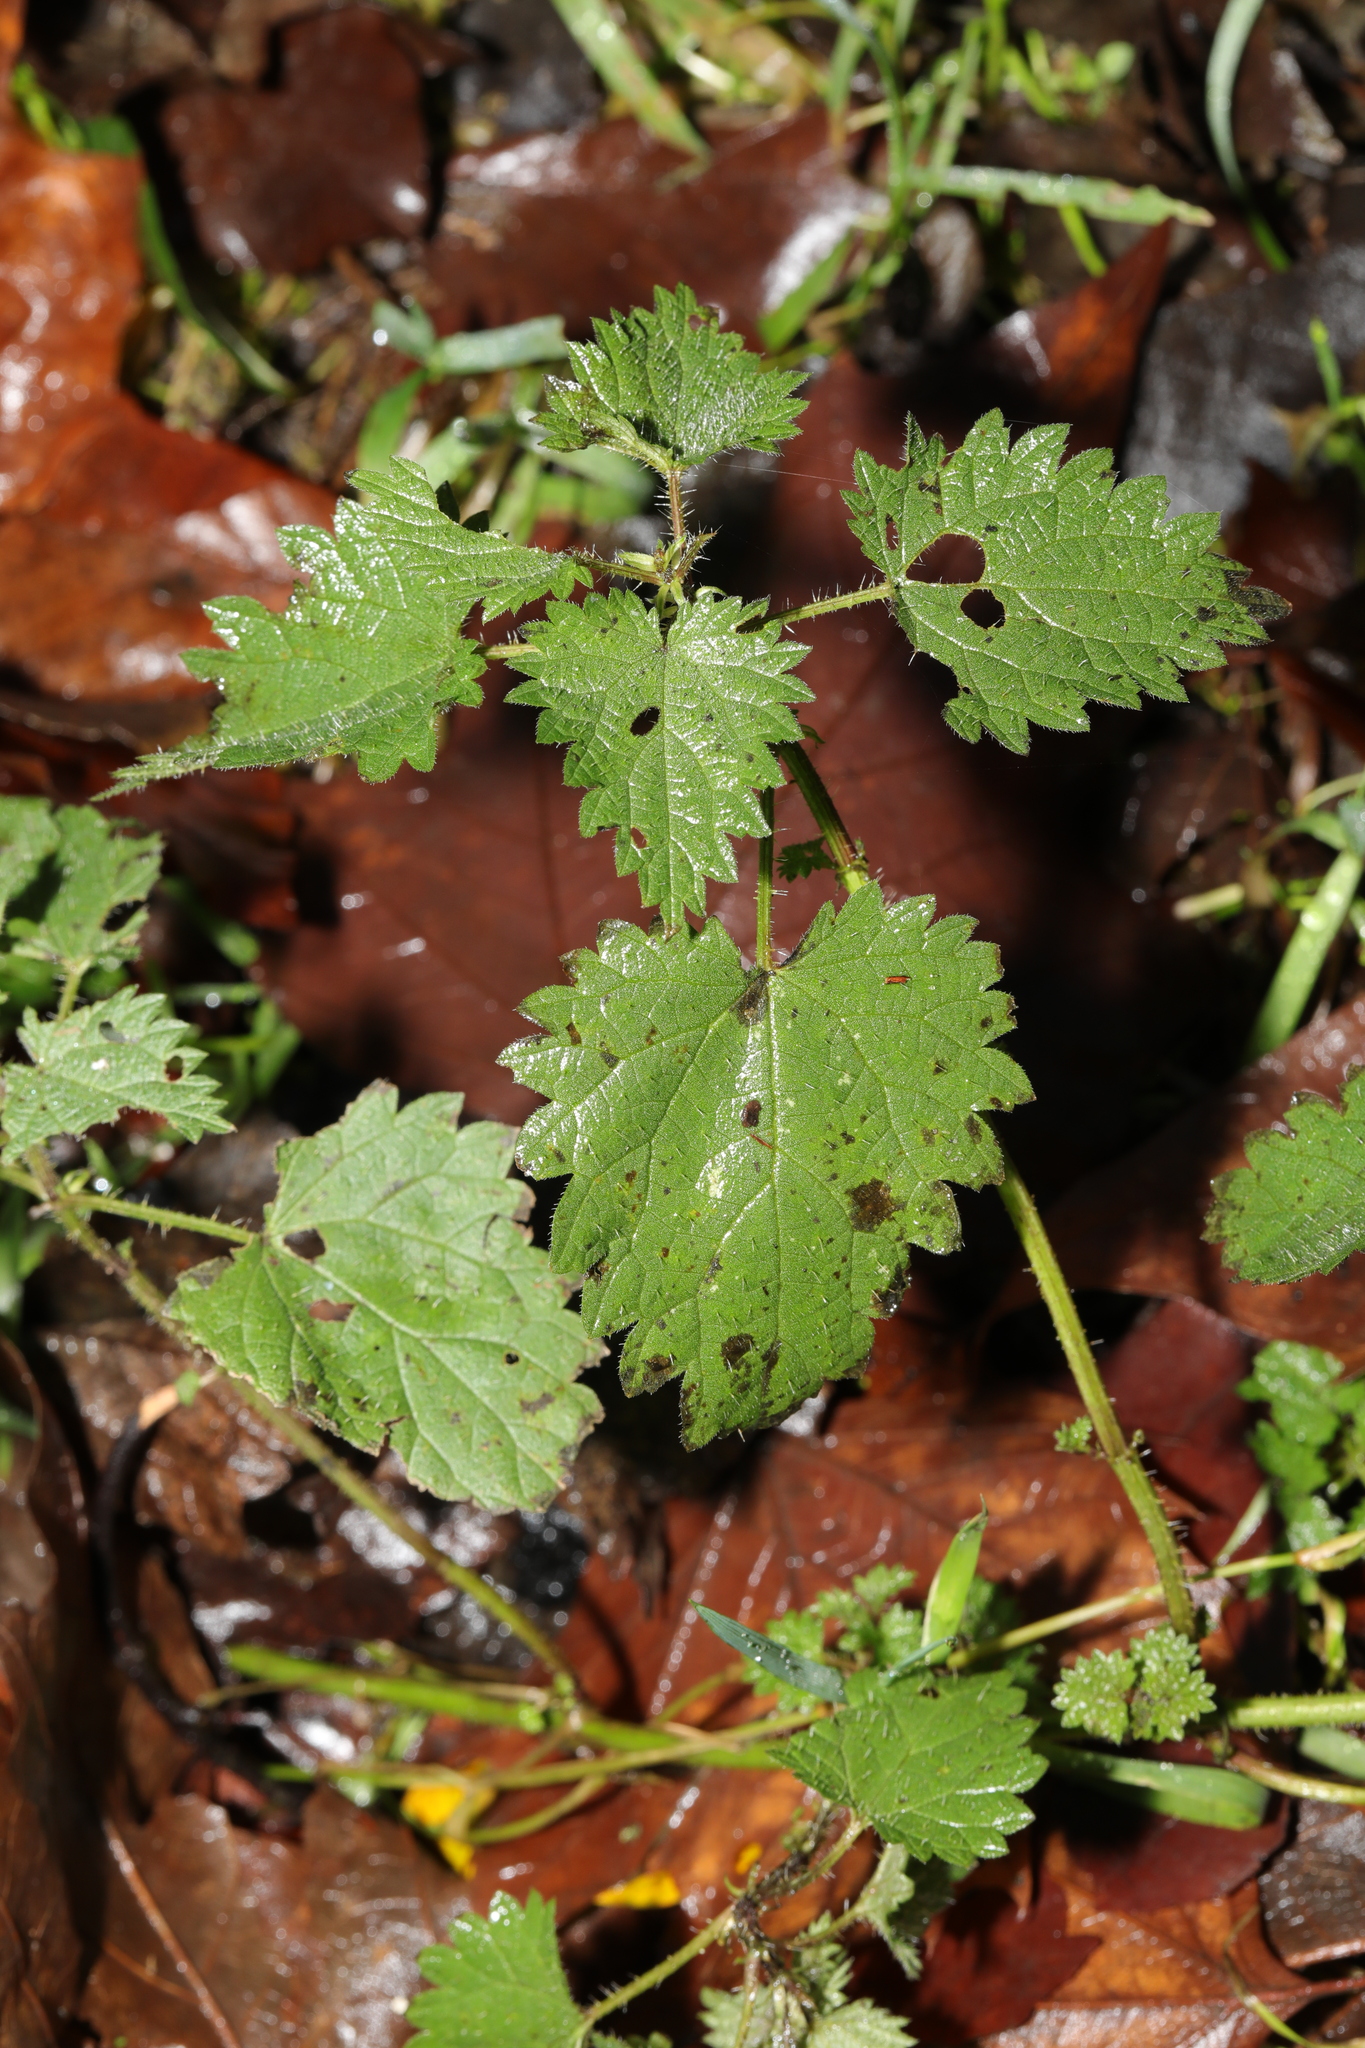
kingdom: Plantae
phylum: Tracheophyta
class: Magnoliopsida
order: Rosales
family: Urticaceae
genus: Urtica
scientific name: Urtica dioica
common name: Common nettle
